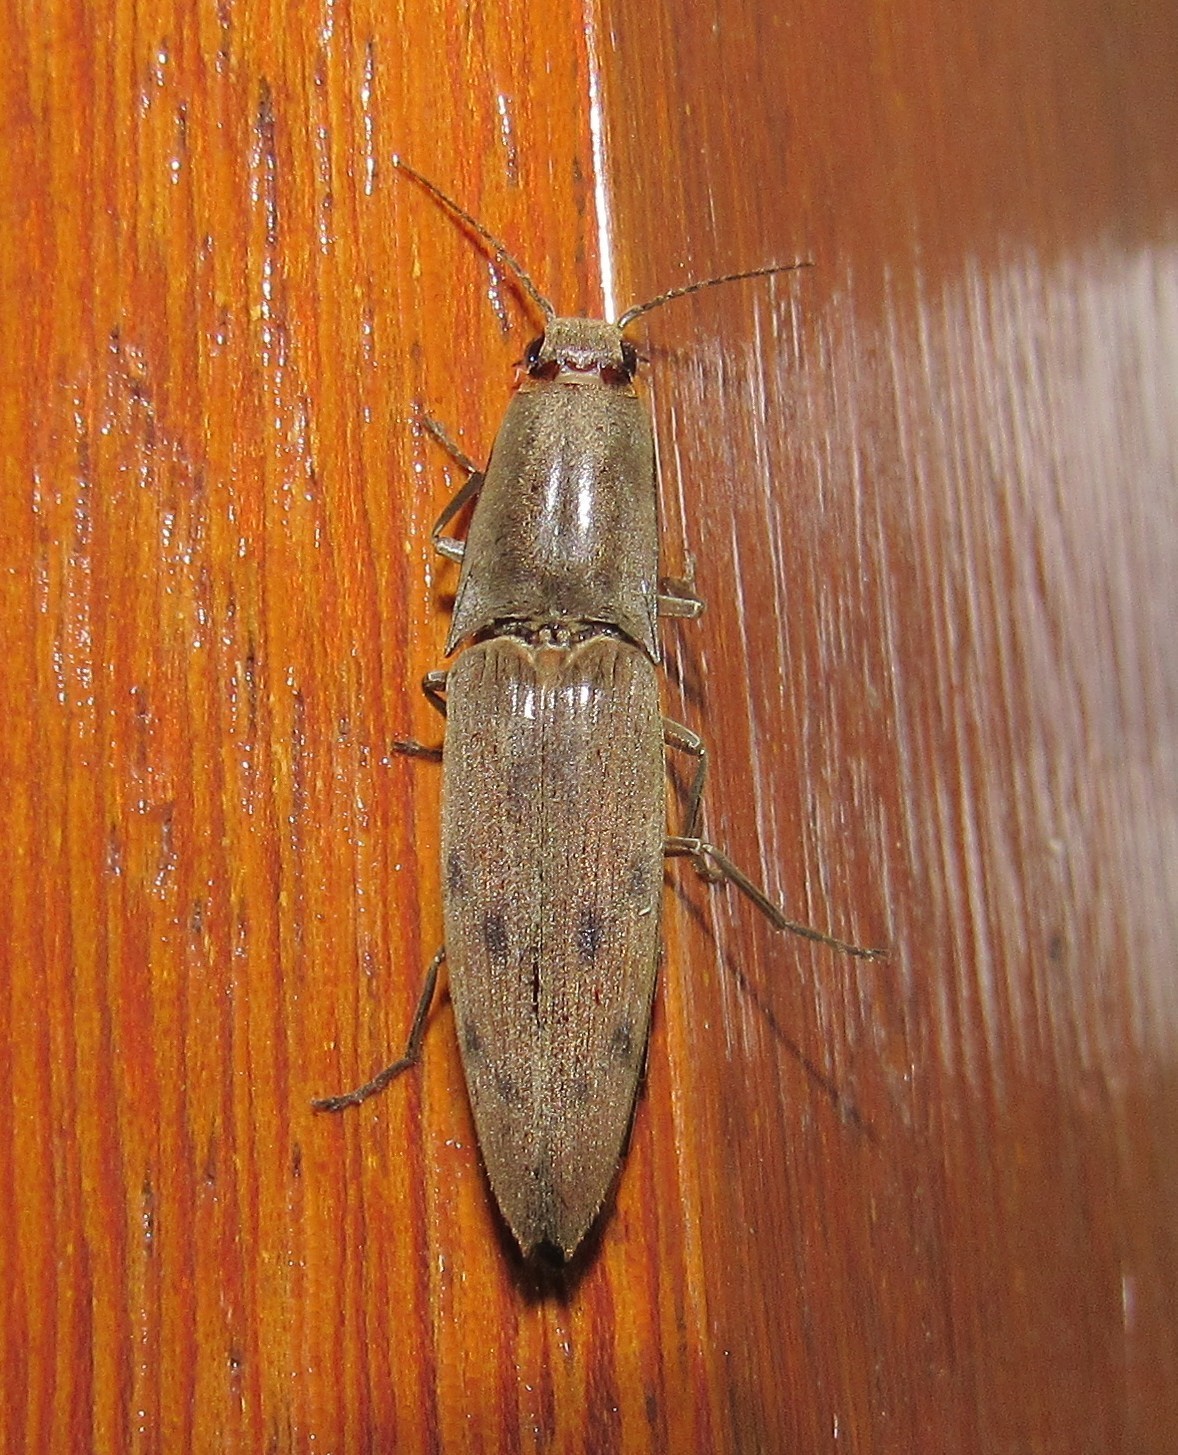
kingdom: Animalia
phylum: Arthropoda
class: Insecta
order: Coleoptera
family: Elateridae
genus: Monocrepidius
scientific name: Monocrepidius
